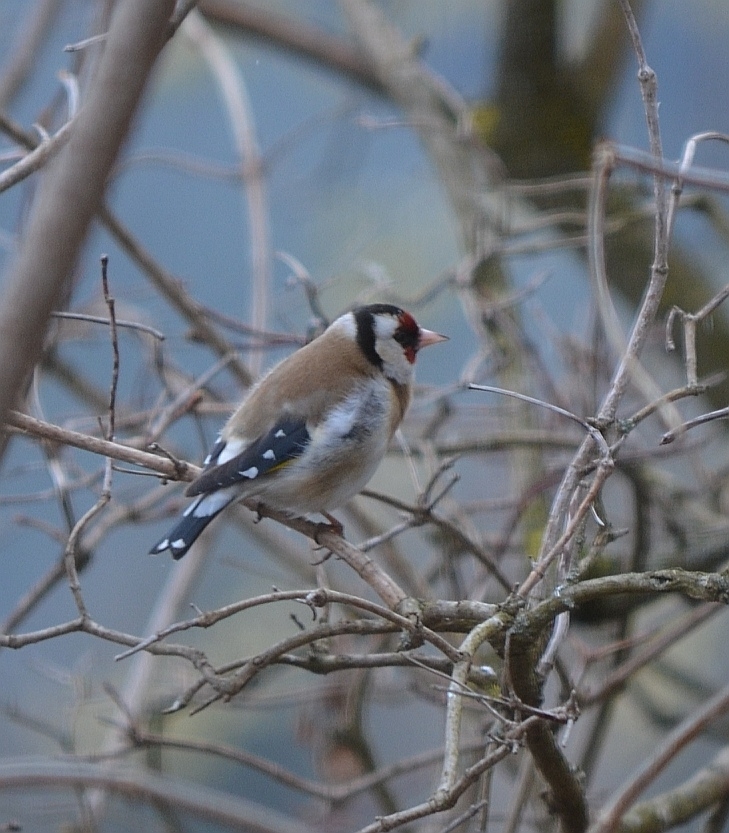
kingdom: Animalia
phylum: Chordata
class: Aves
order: Passeriformes
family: Fringillidae
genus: Carduelis
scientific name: Carduelis carduelis
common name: European goldfinch
